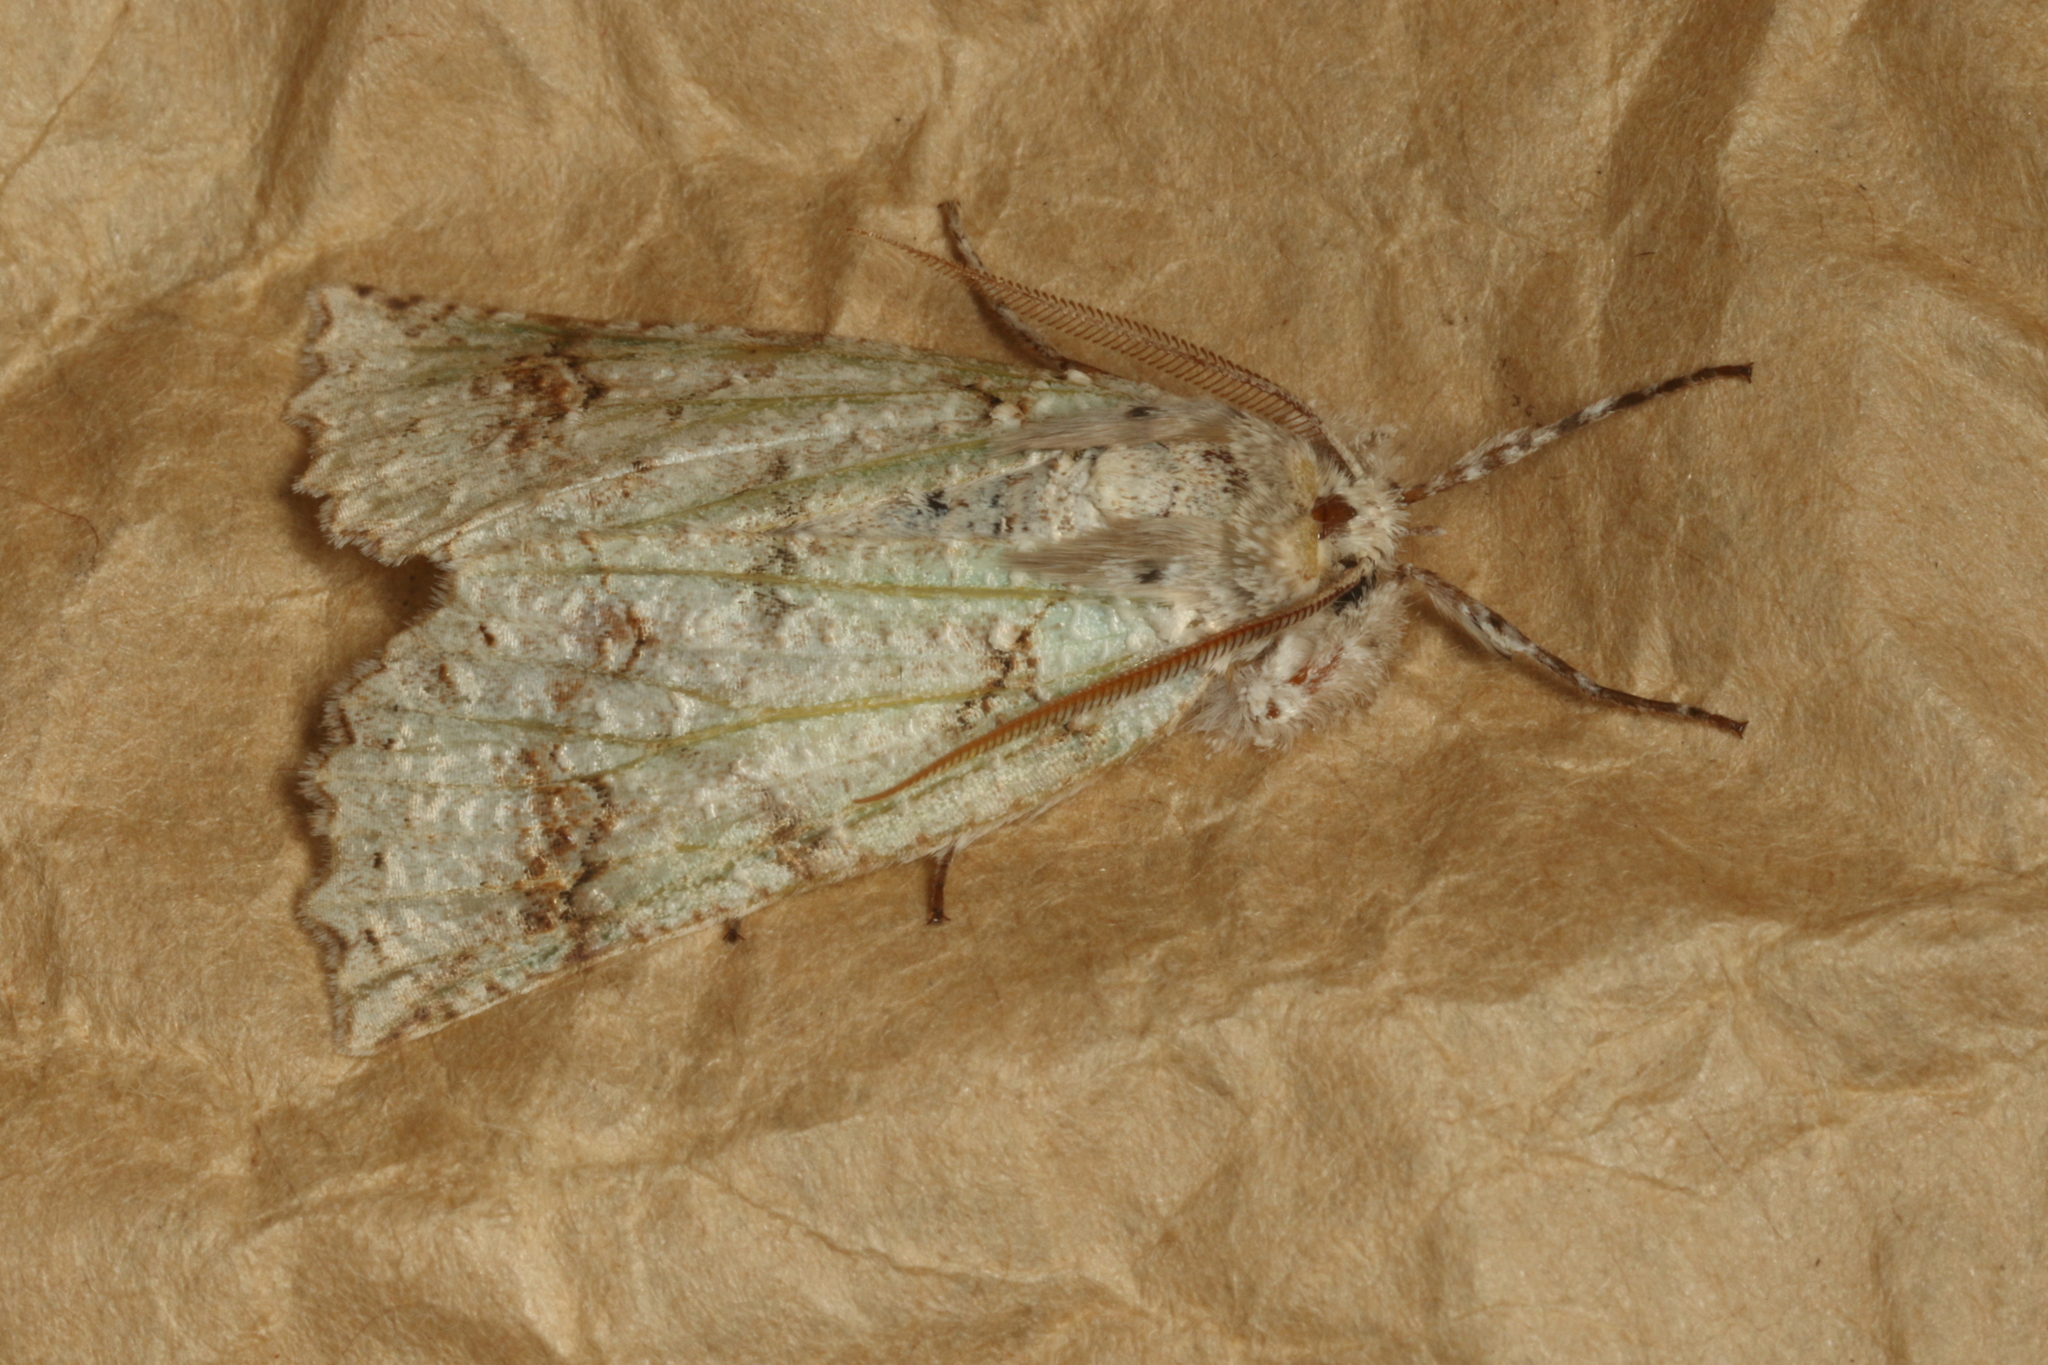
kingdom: Animalia
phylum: Arthropoda
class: Insecta
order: Lepidoptera
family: Geometridae
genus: Declana
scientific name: Declana floccosa
